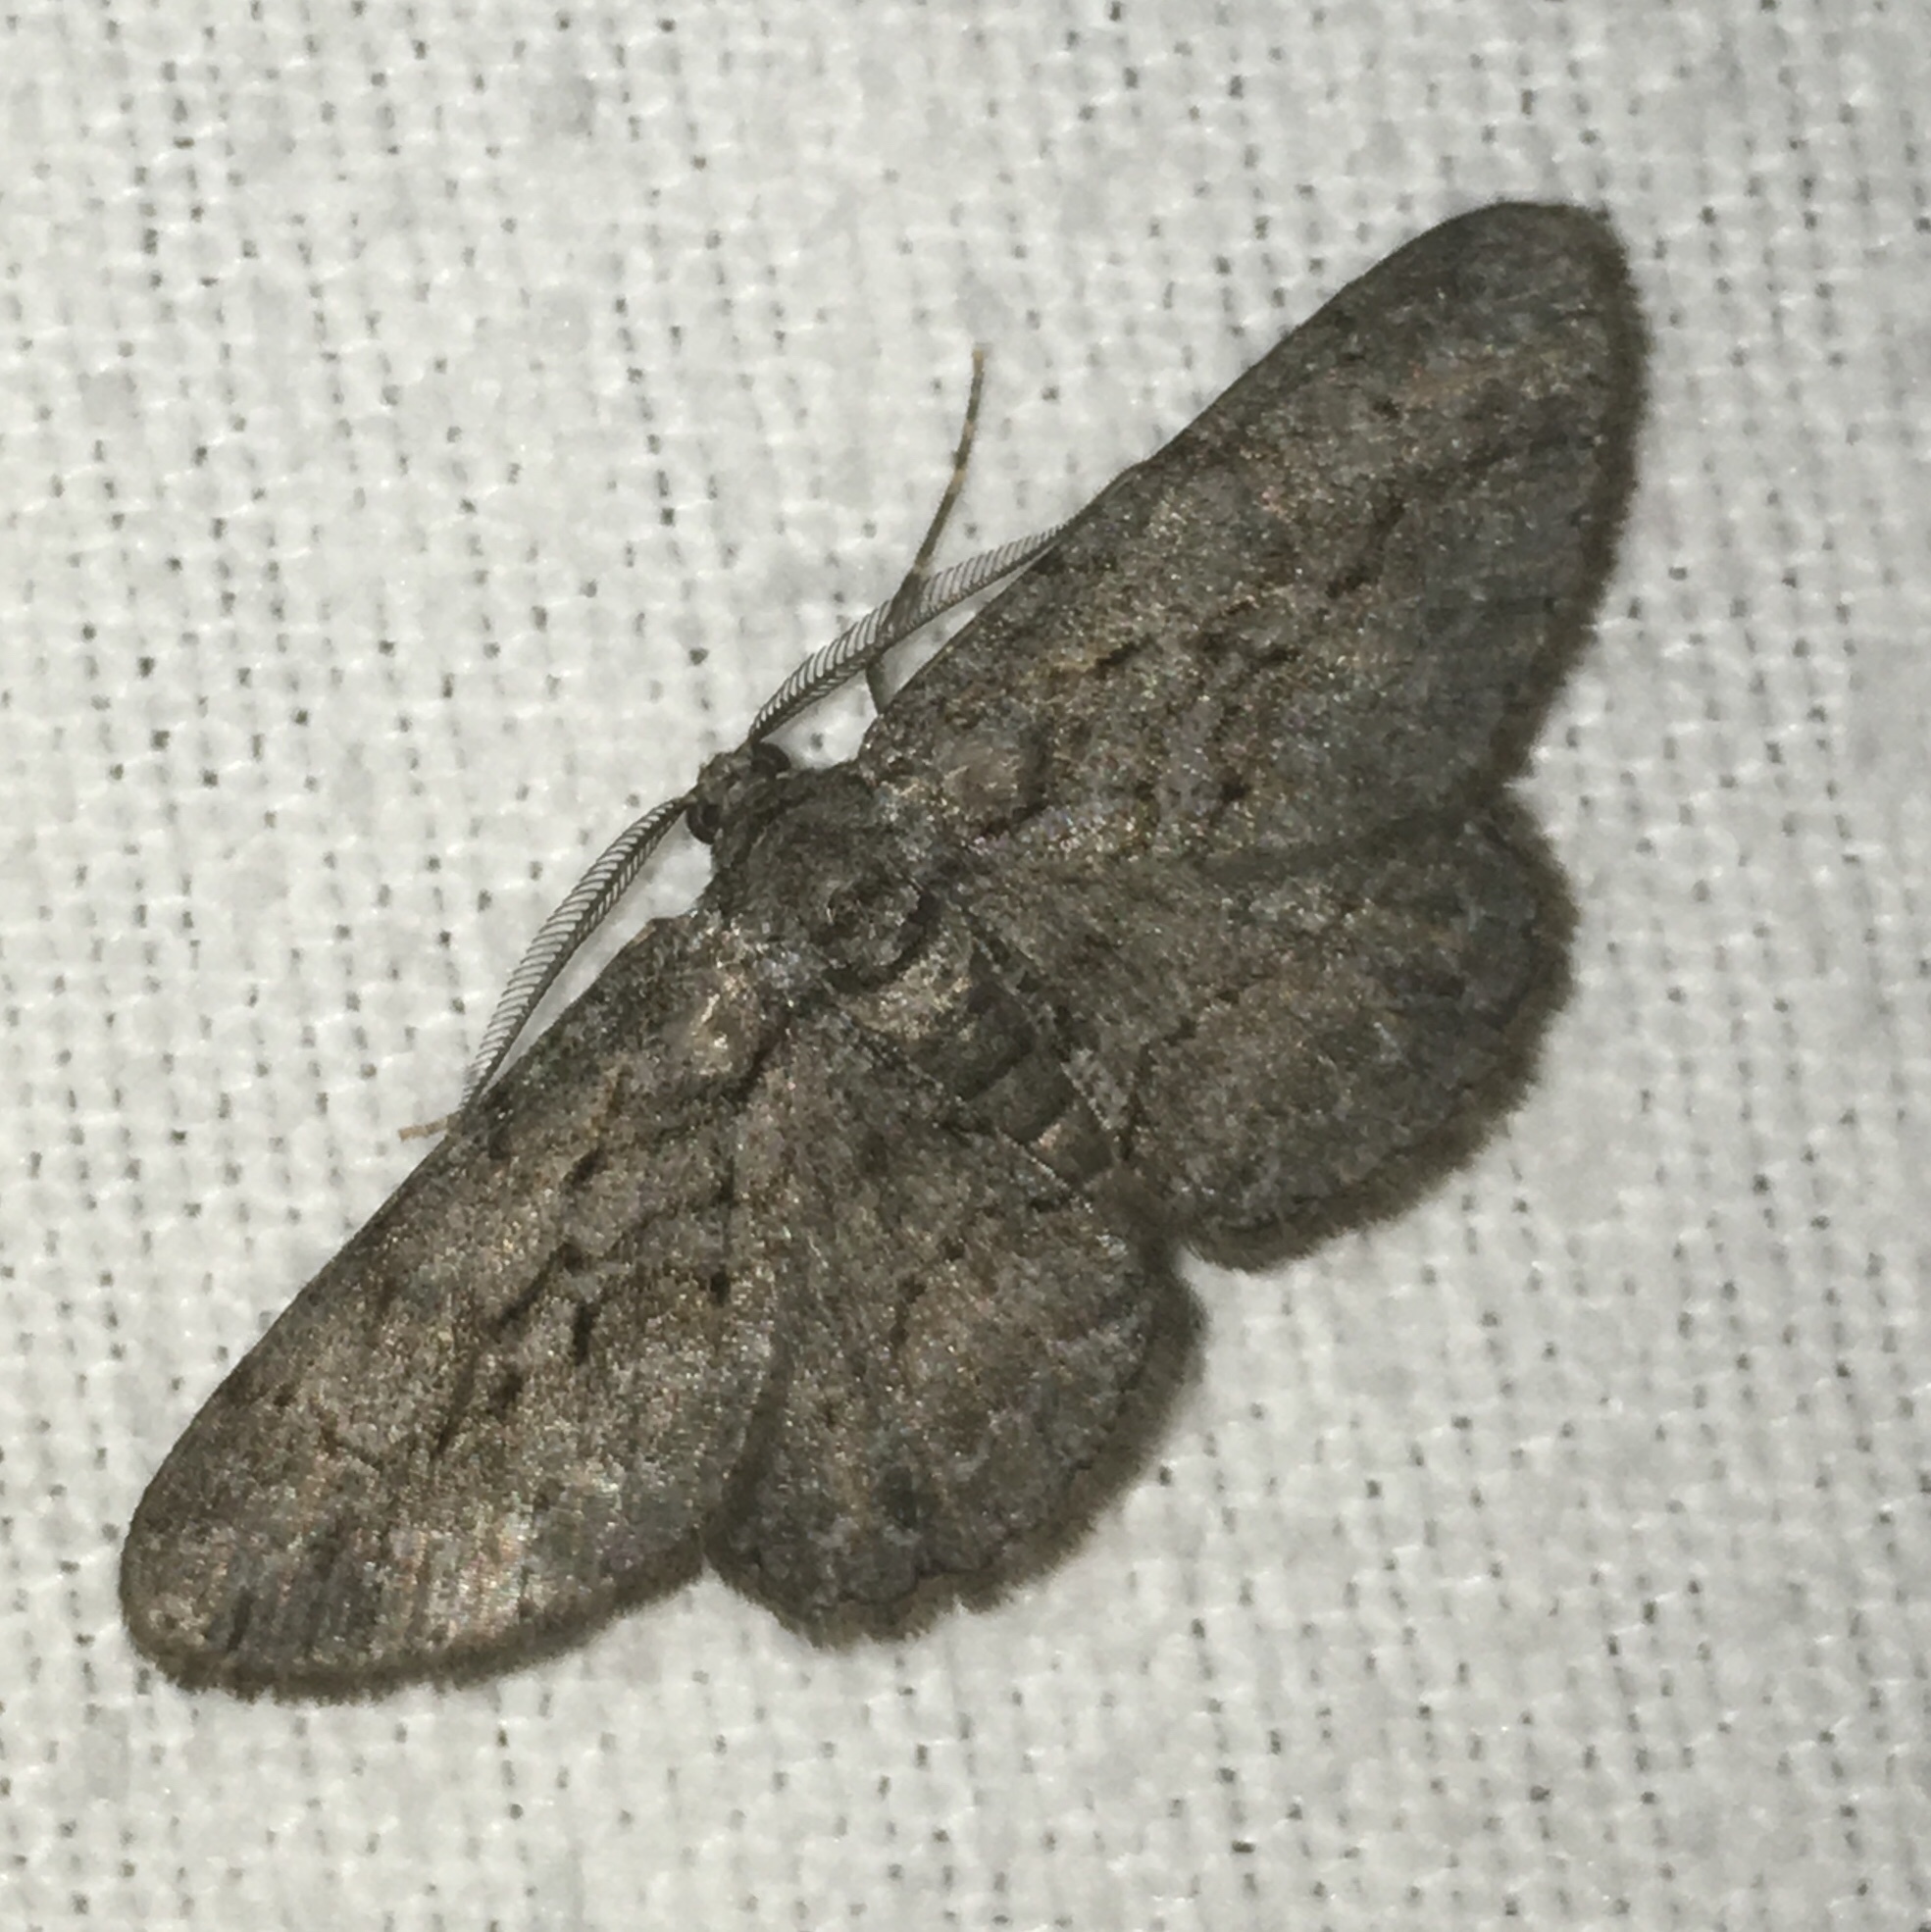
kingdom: Animalia
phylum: Arthropoda
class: Insecta
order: Lepidoptera
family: Geometridae
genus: Anavitrinella
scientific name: Anavitrinella pampinaria
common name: Common gray
